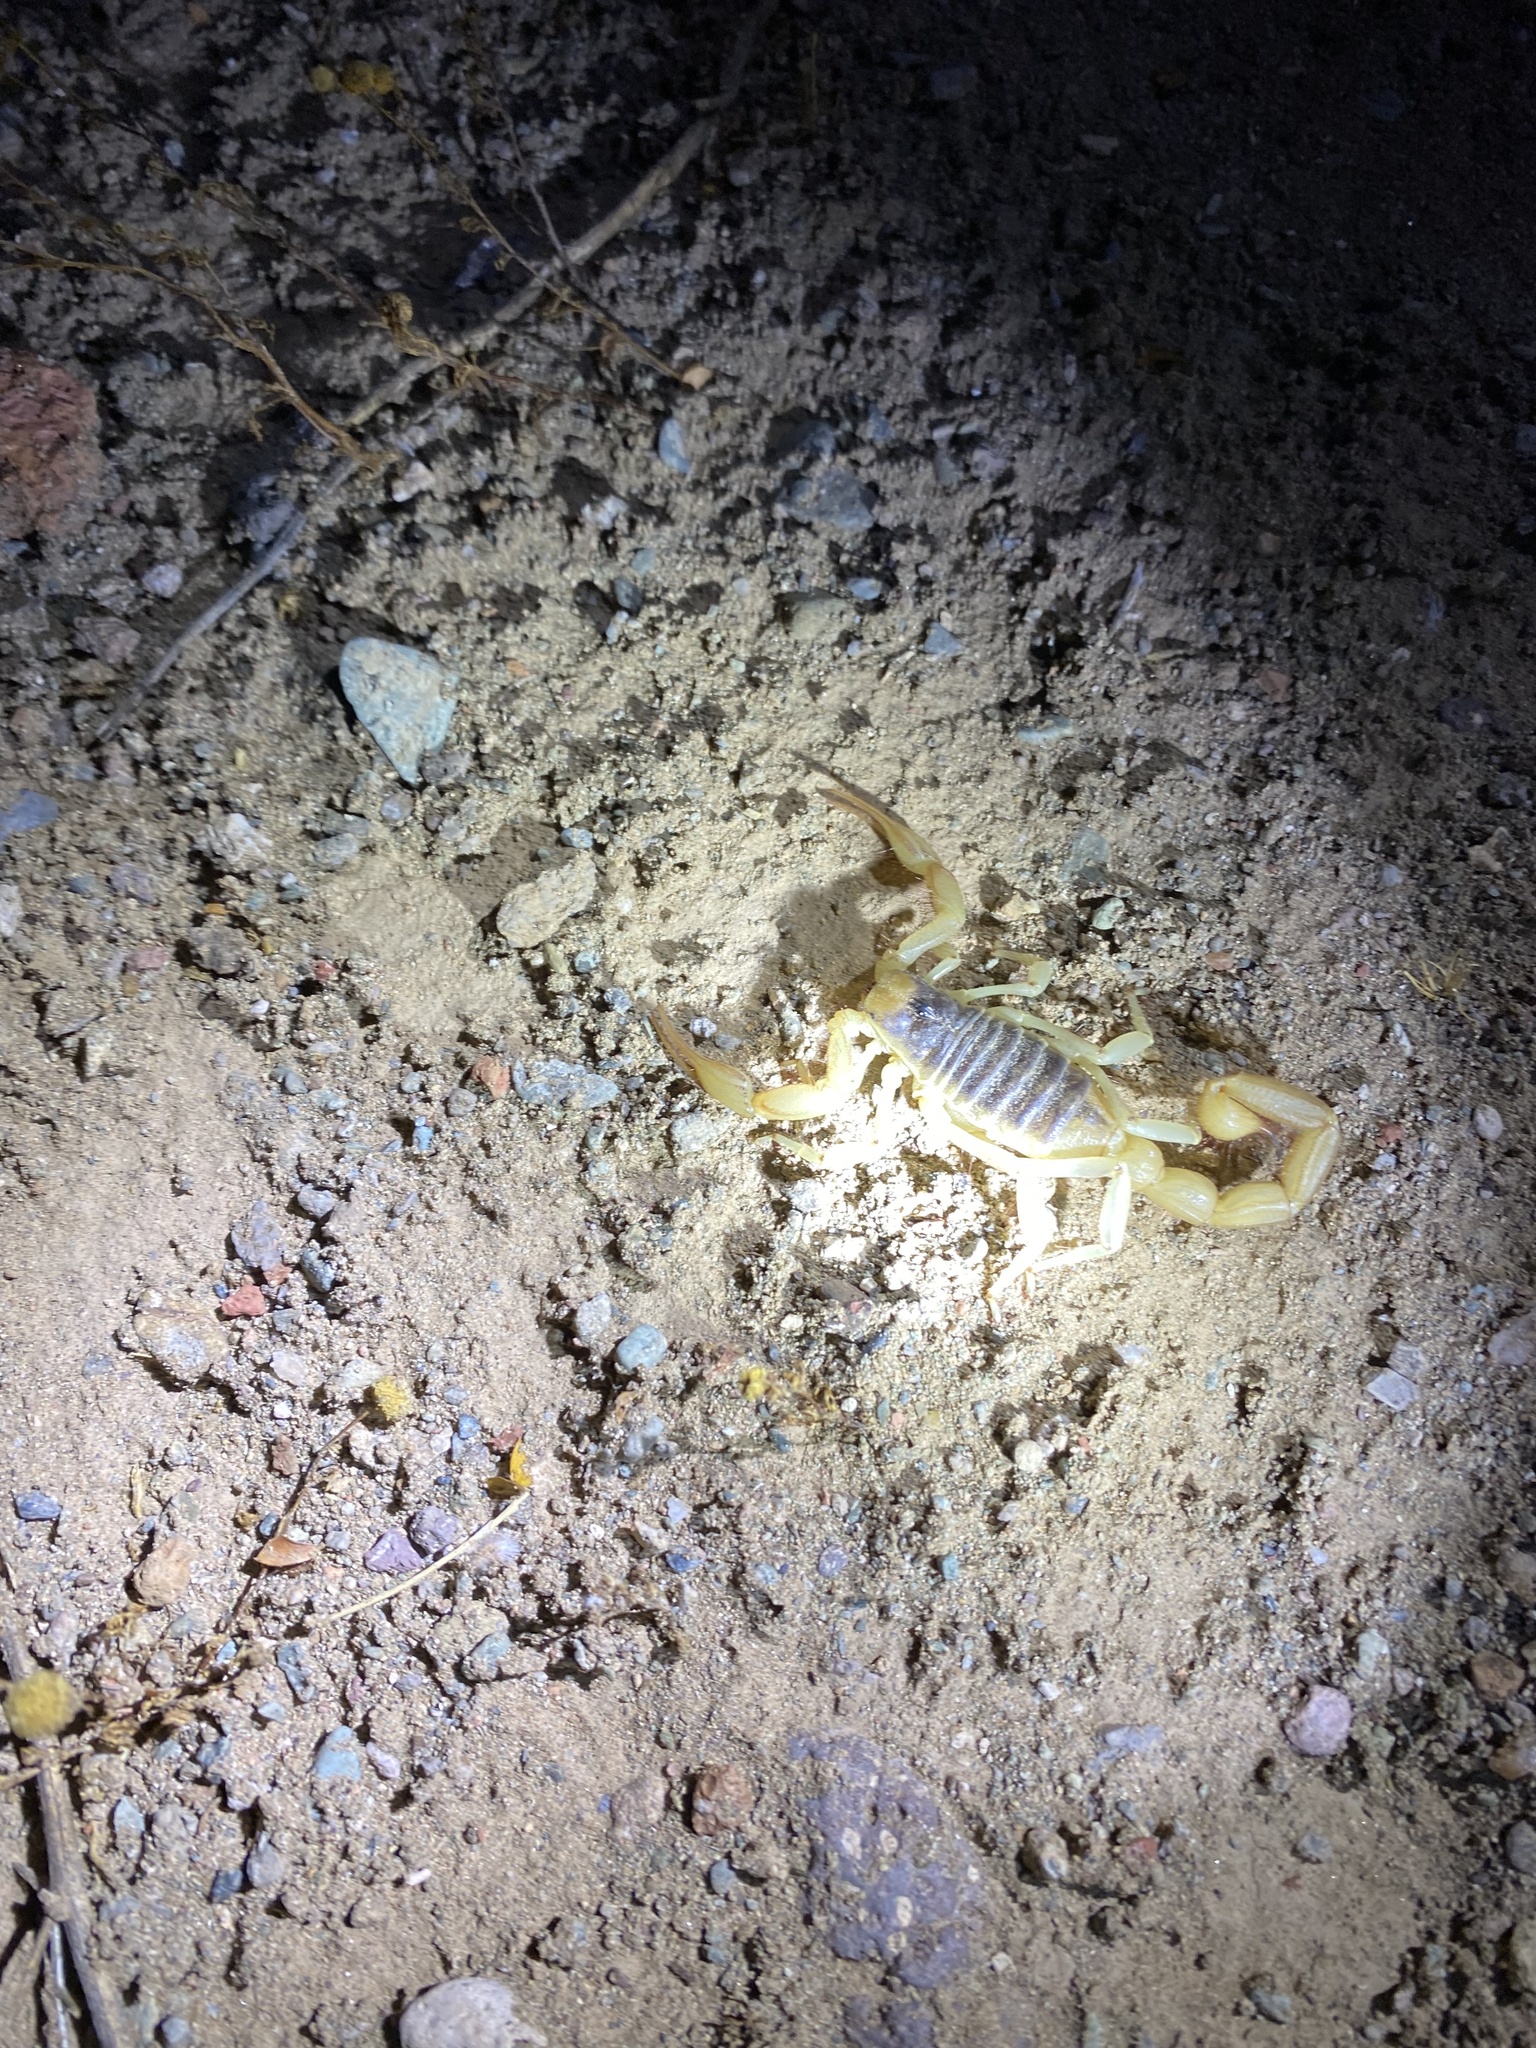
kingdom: Animalia
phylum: Arthropoda
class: Arachnida
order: Scorpiones
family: Hadruridae
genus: Hadrurus
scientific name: Hadrurus arizonensis
